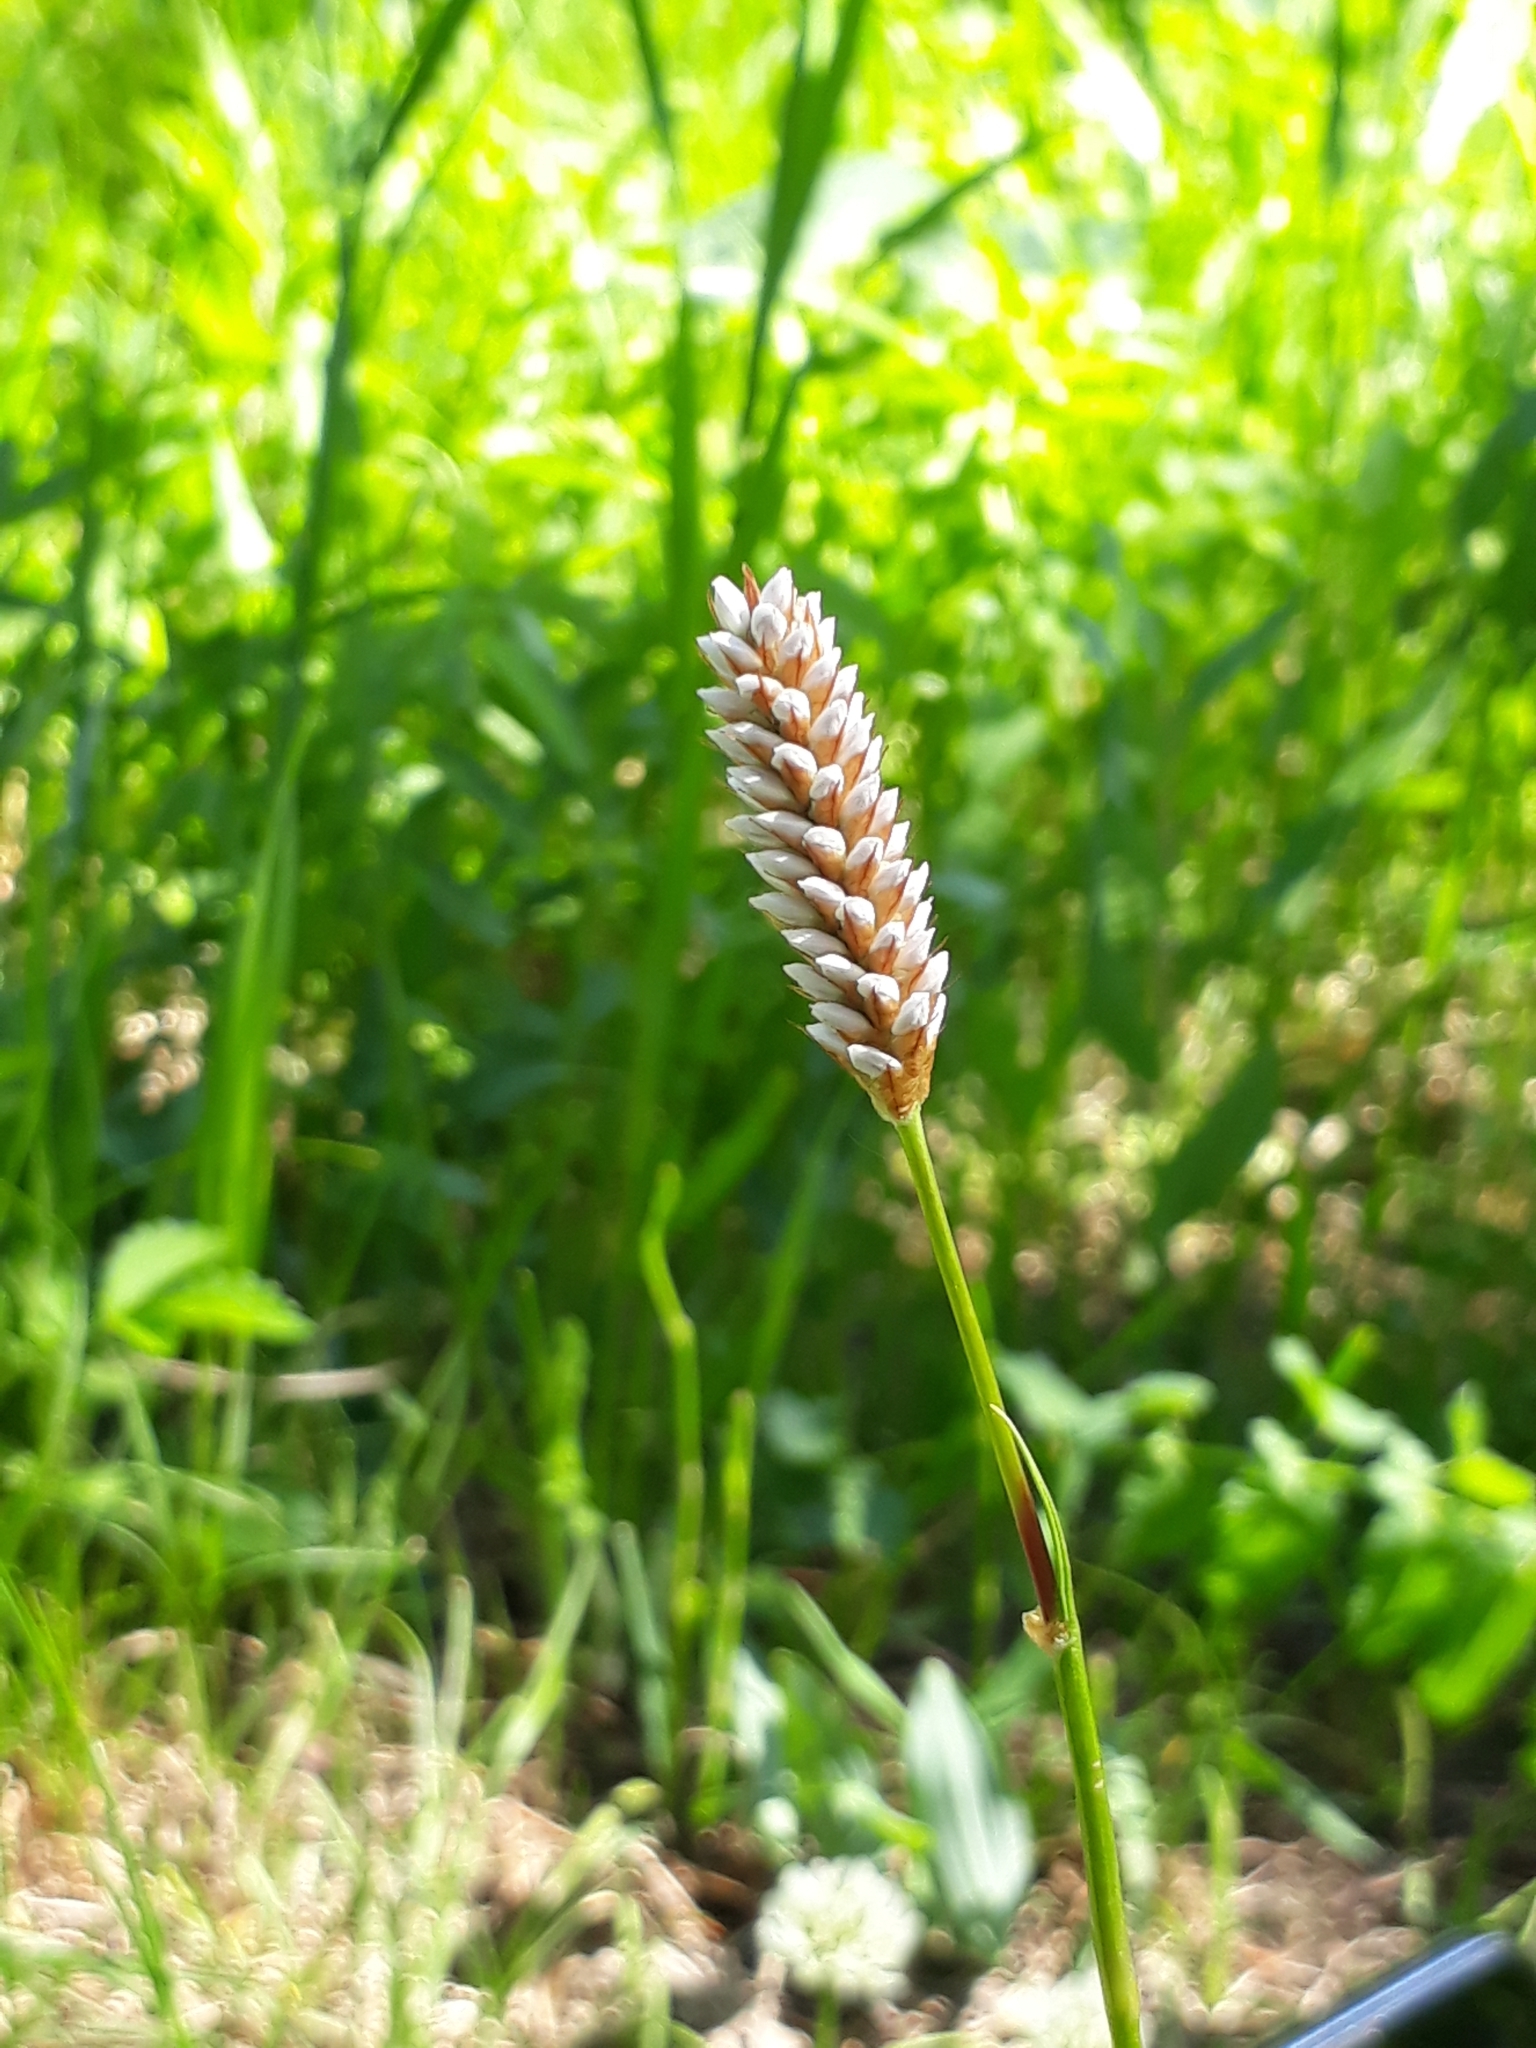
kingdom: Plantae
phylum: Tracheophyta
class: Magnoliopsida
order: Caryophyllales
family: Polygonaceae
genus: Bistorta
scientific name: Bistorta vivipara
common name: Alpine bistort
